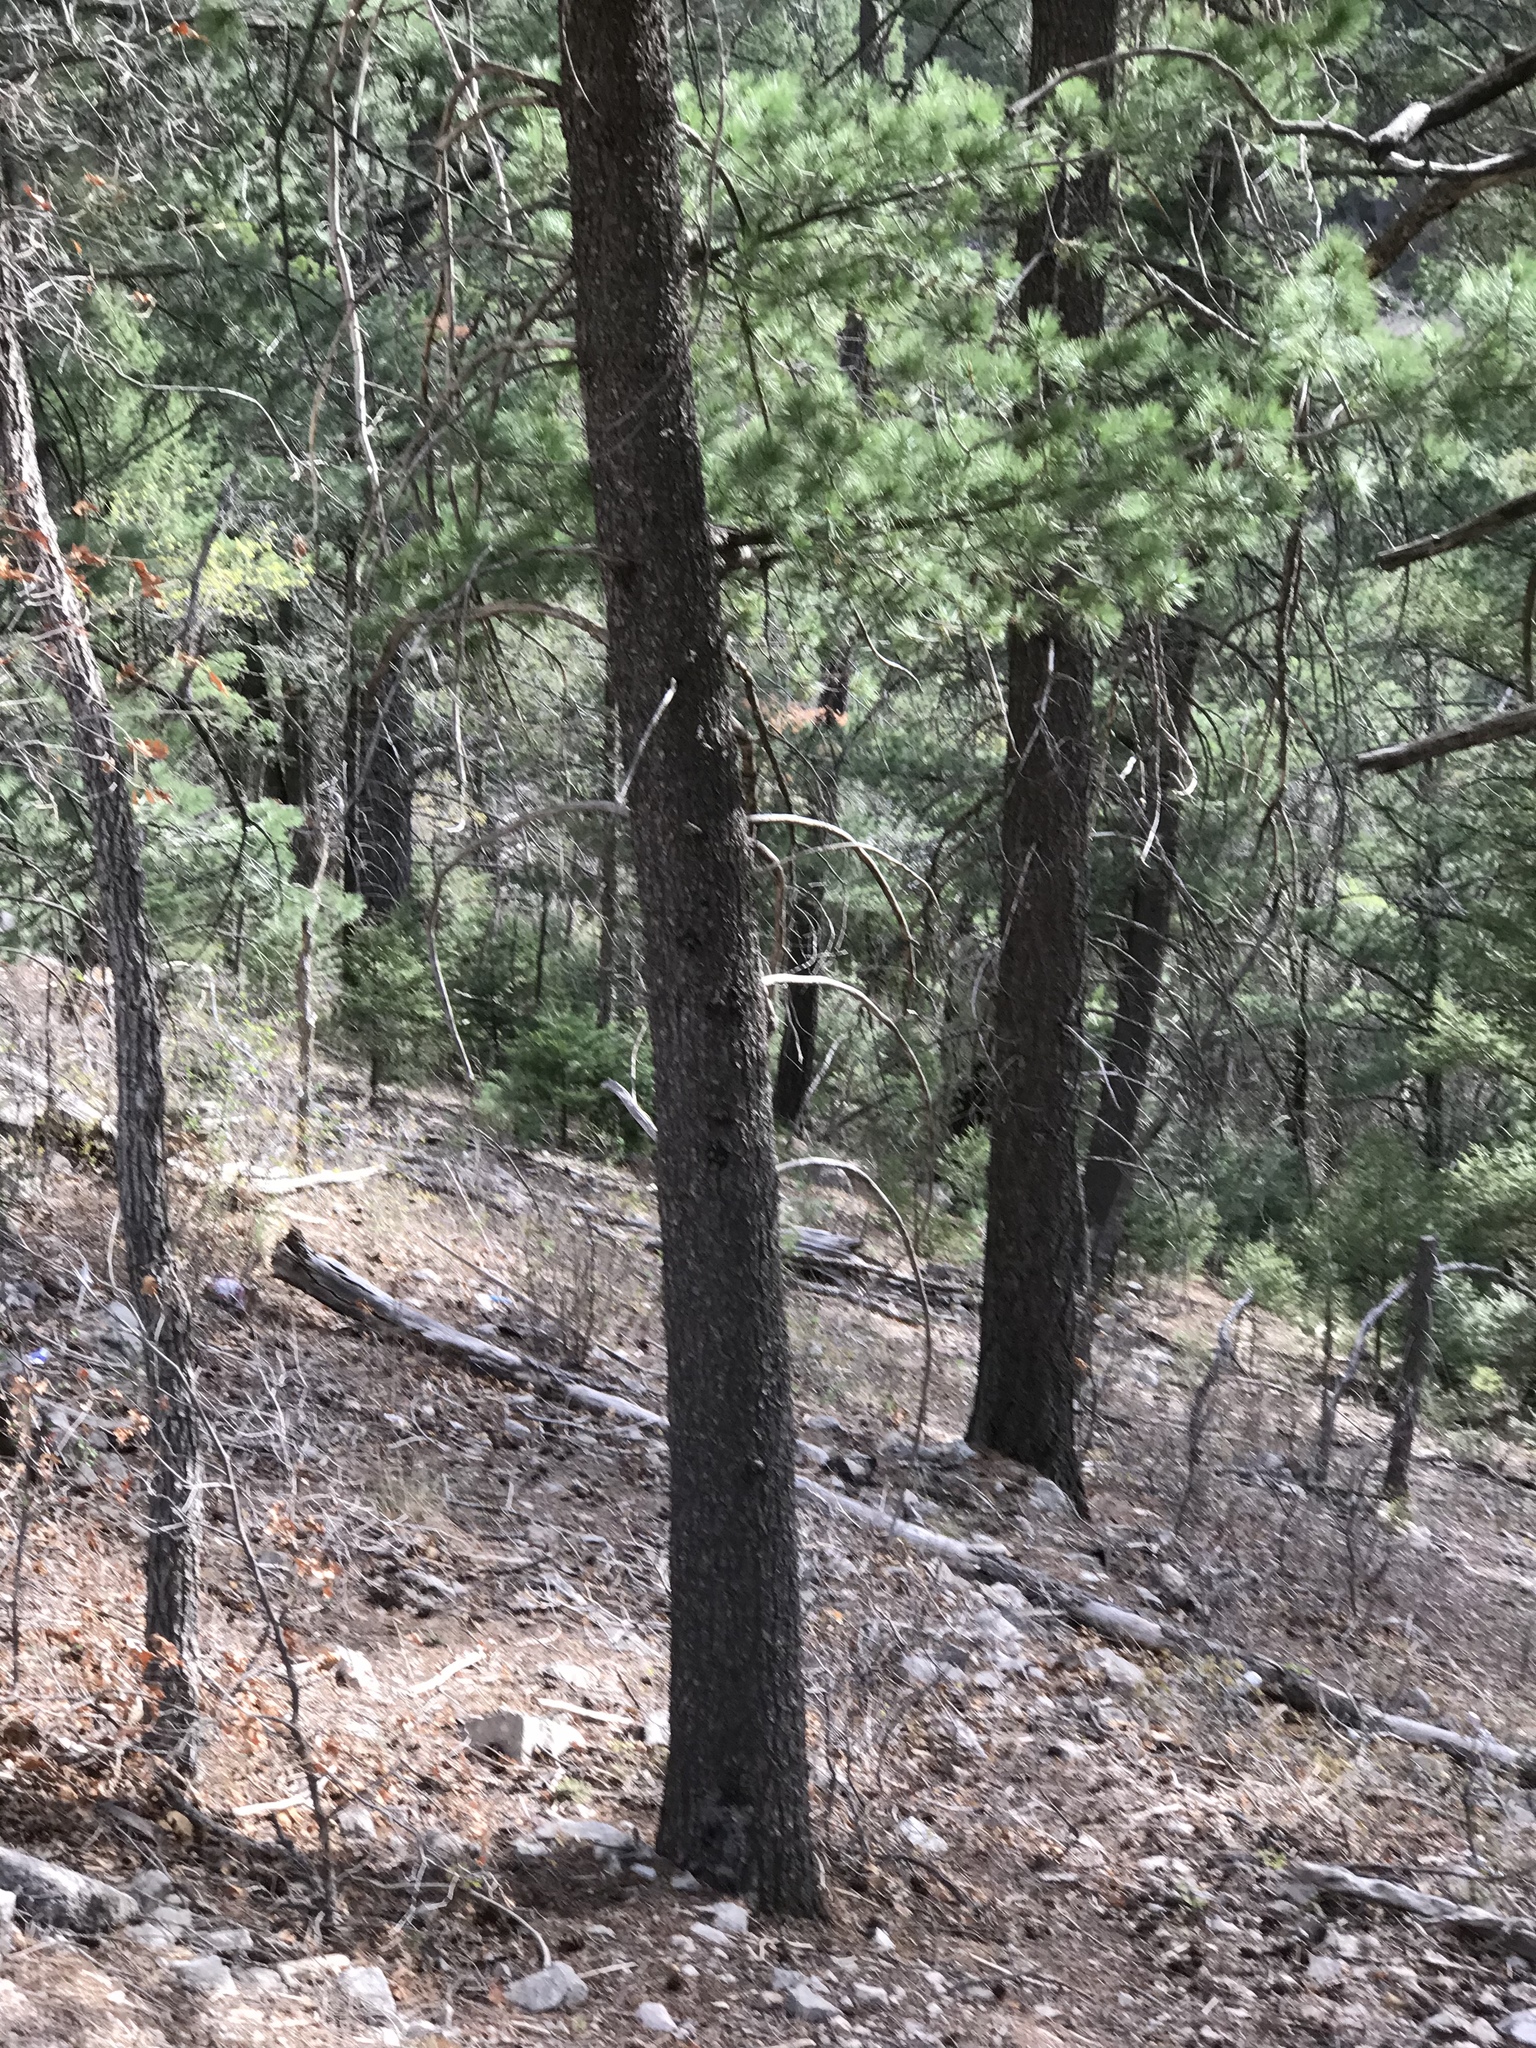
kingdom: Plantae
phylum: Tracheophyta
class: Pinopsida
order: Pinales
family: Pinaceae
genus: Pinus
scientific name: Pinus strobiformis
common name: Southwestern white pine
